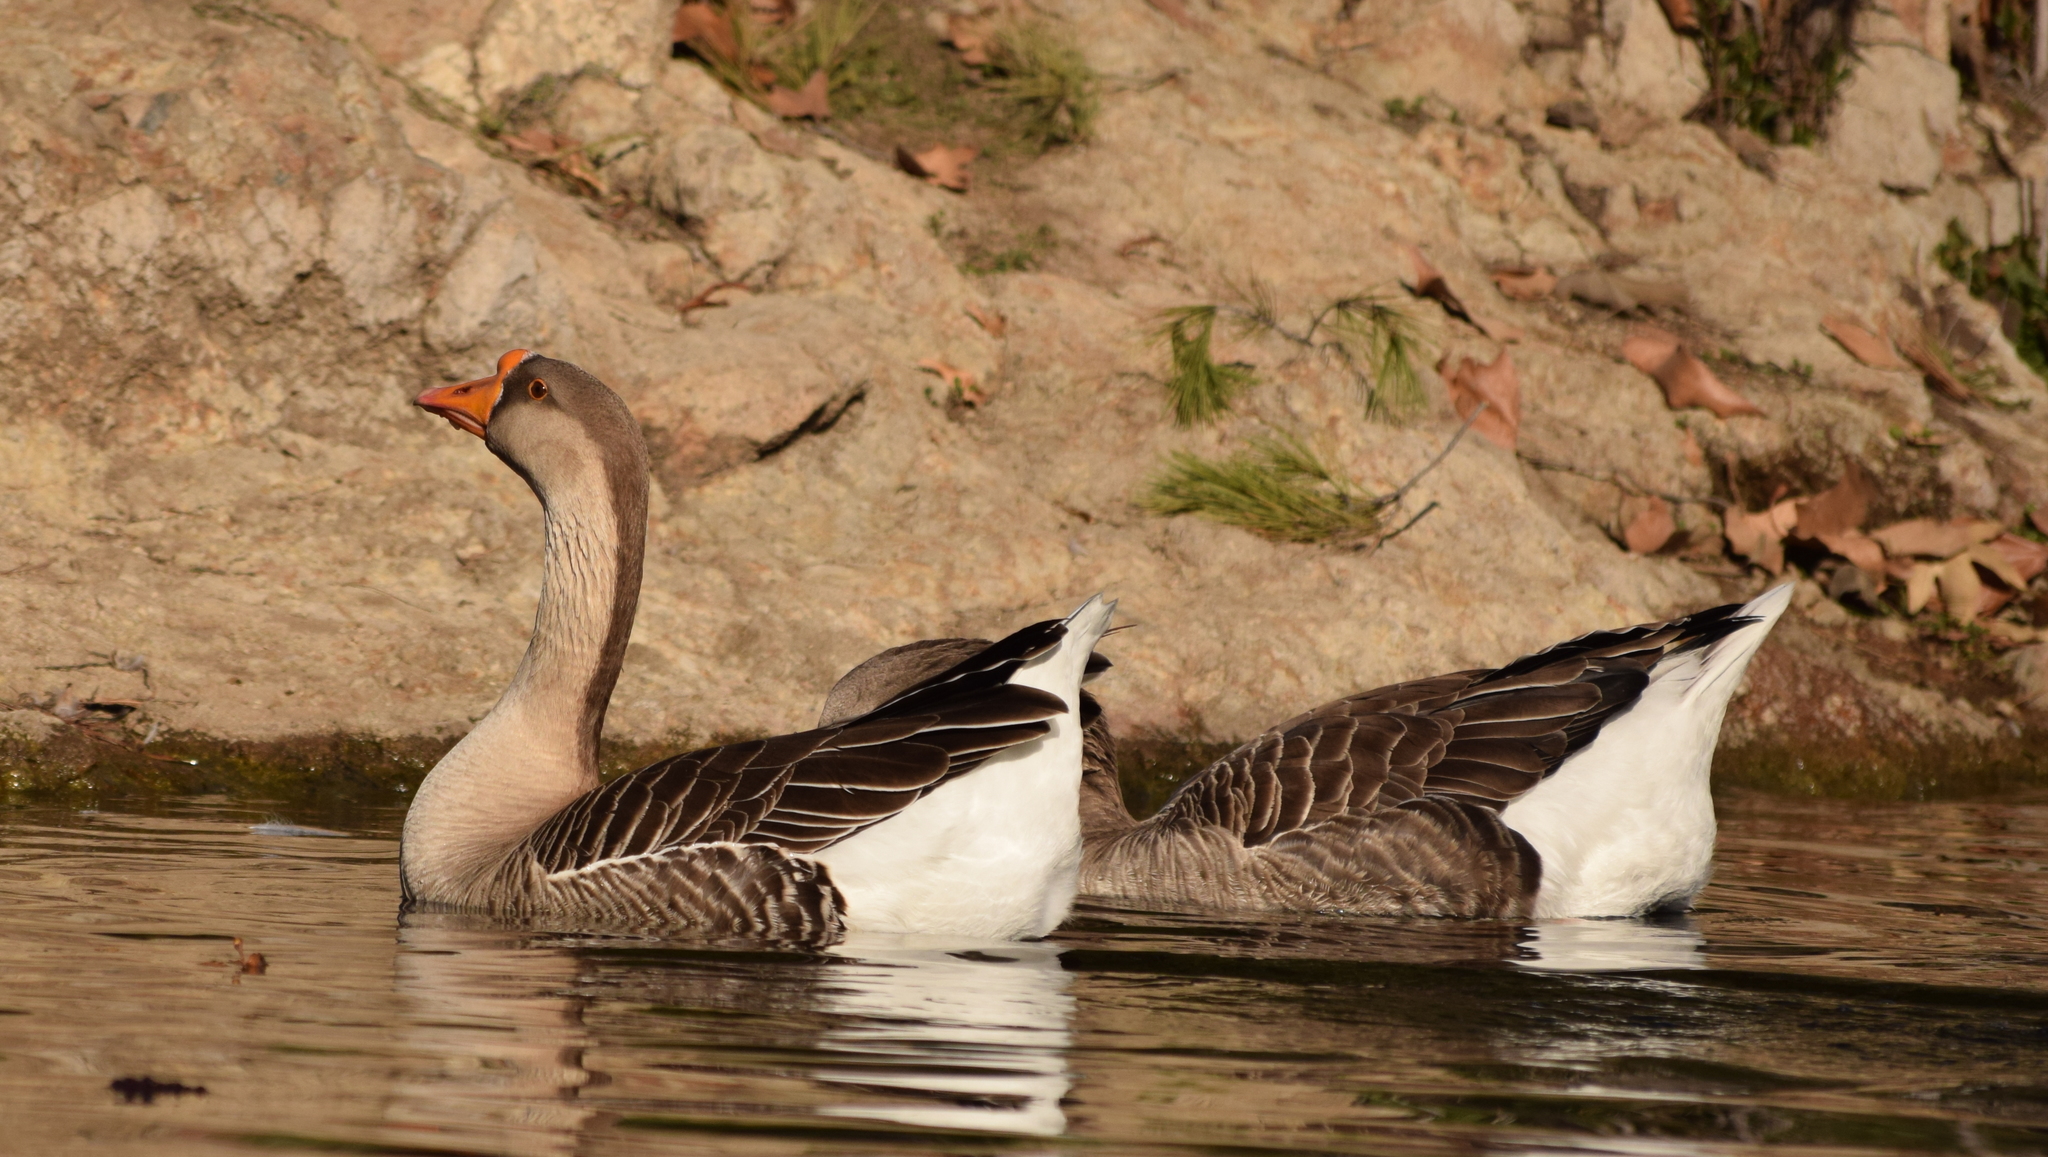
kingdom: Animalia
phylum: Chordata
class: Aves
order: Anseriformes
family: Anatidae
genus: Anser
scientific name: Anser
